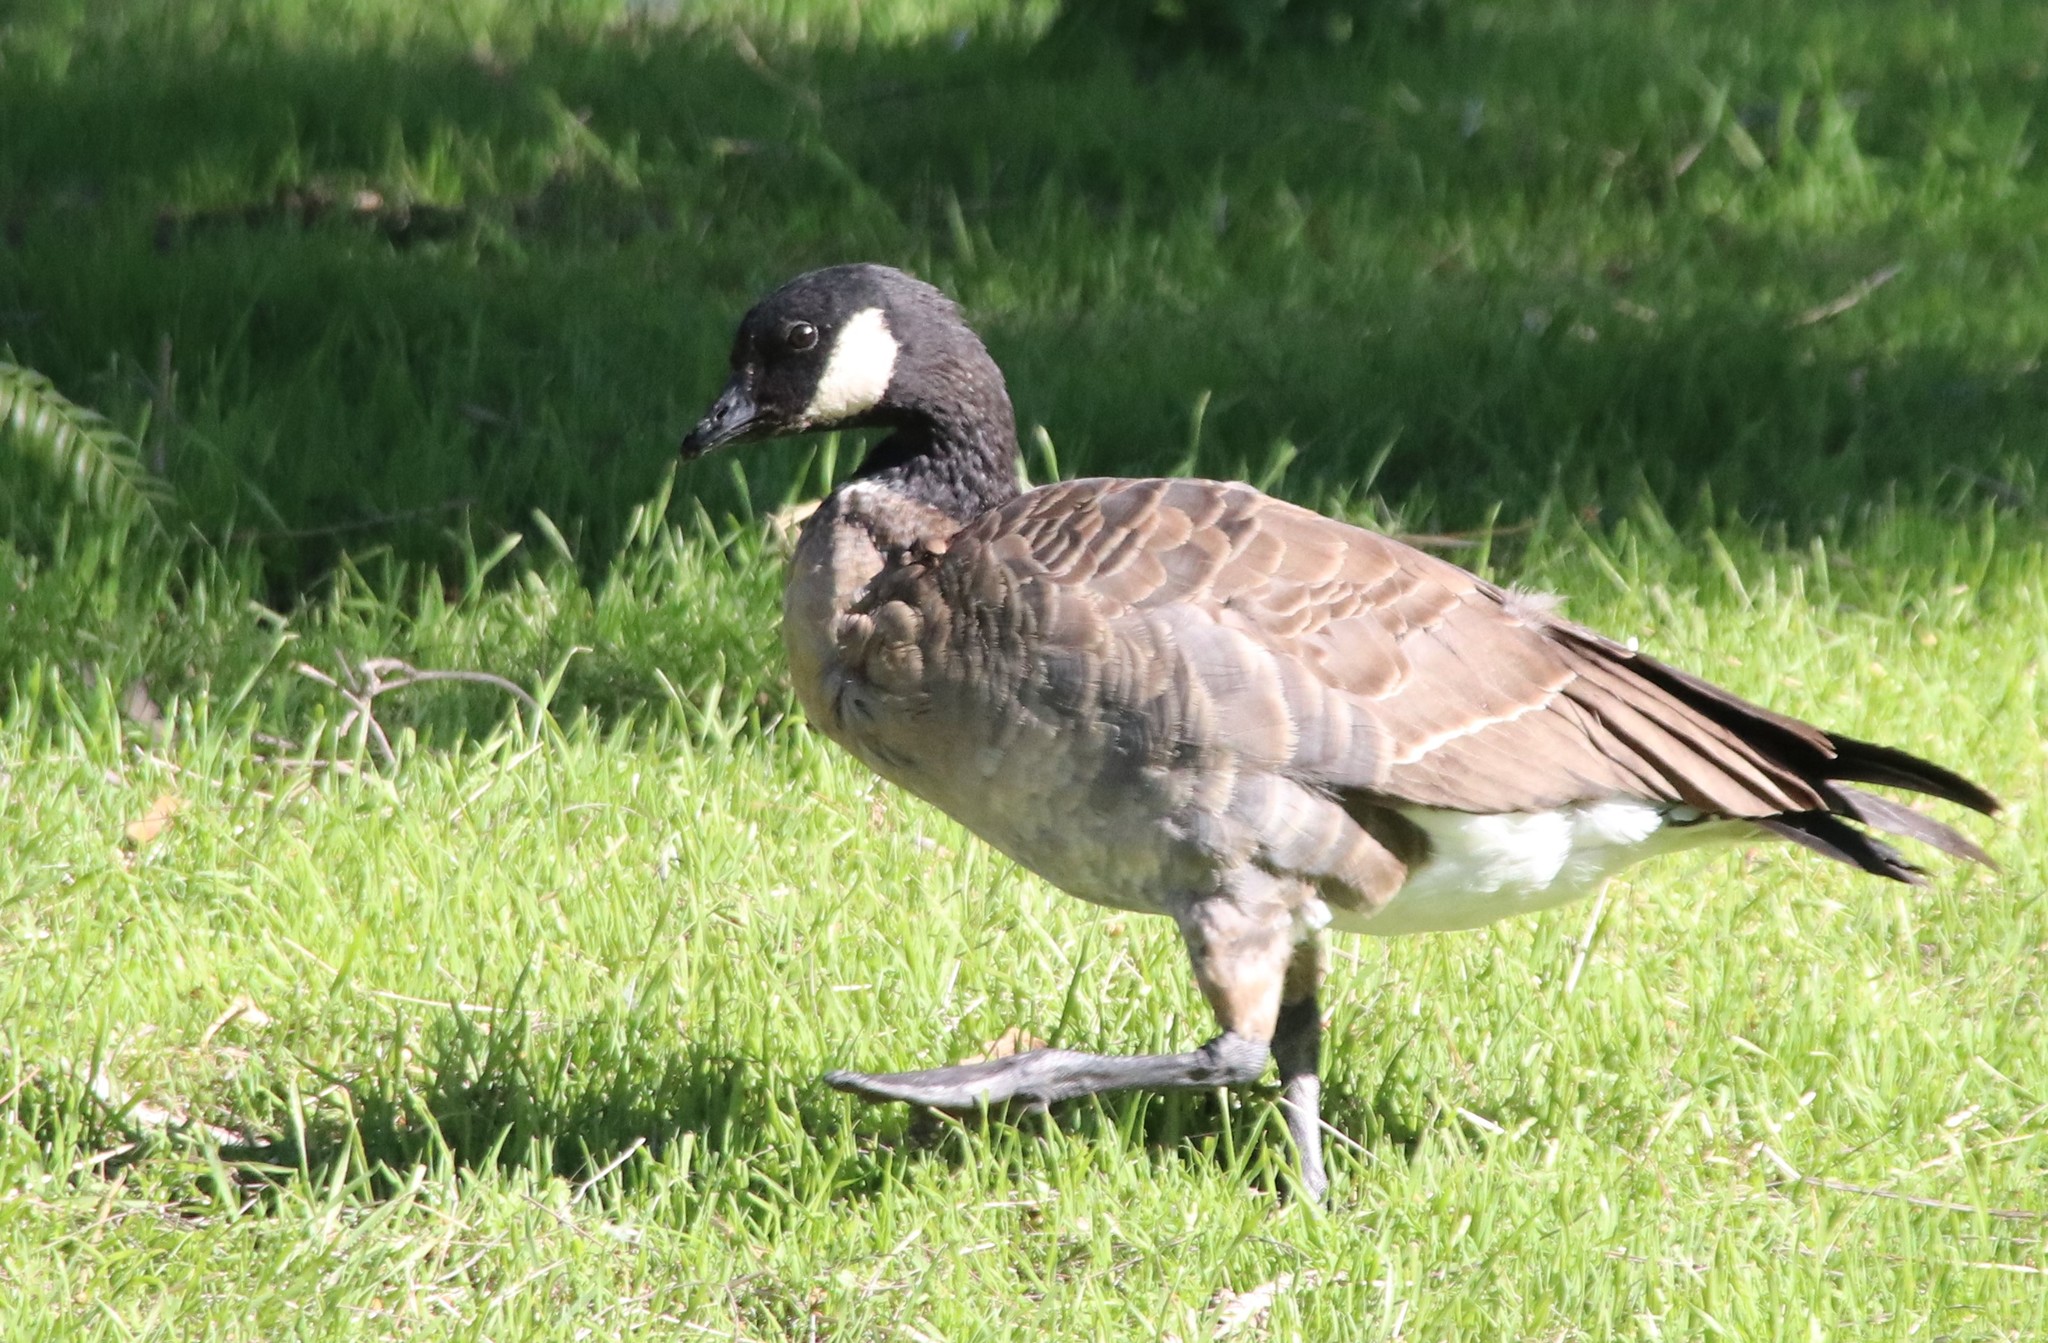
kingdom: Animalia
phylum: Chordata
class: Aves
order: Anseriformes
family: Anatidae
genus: Branta
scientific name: Branta hutchinsii
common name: Cackling goose
